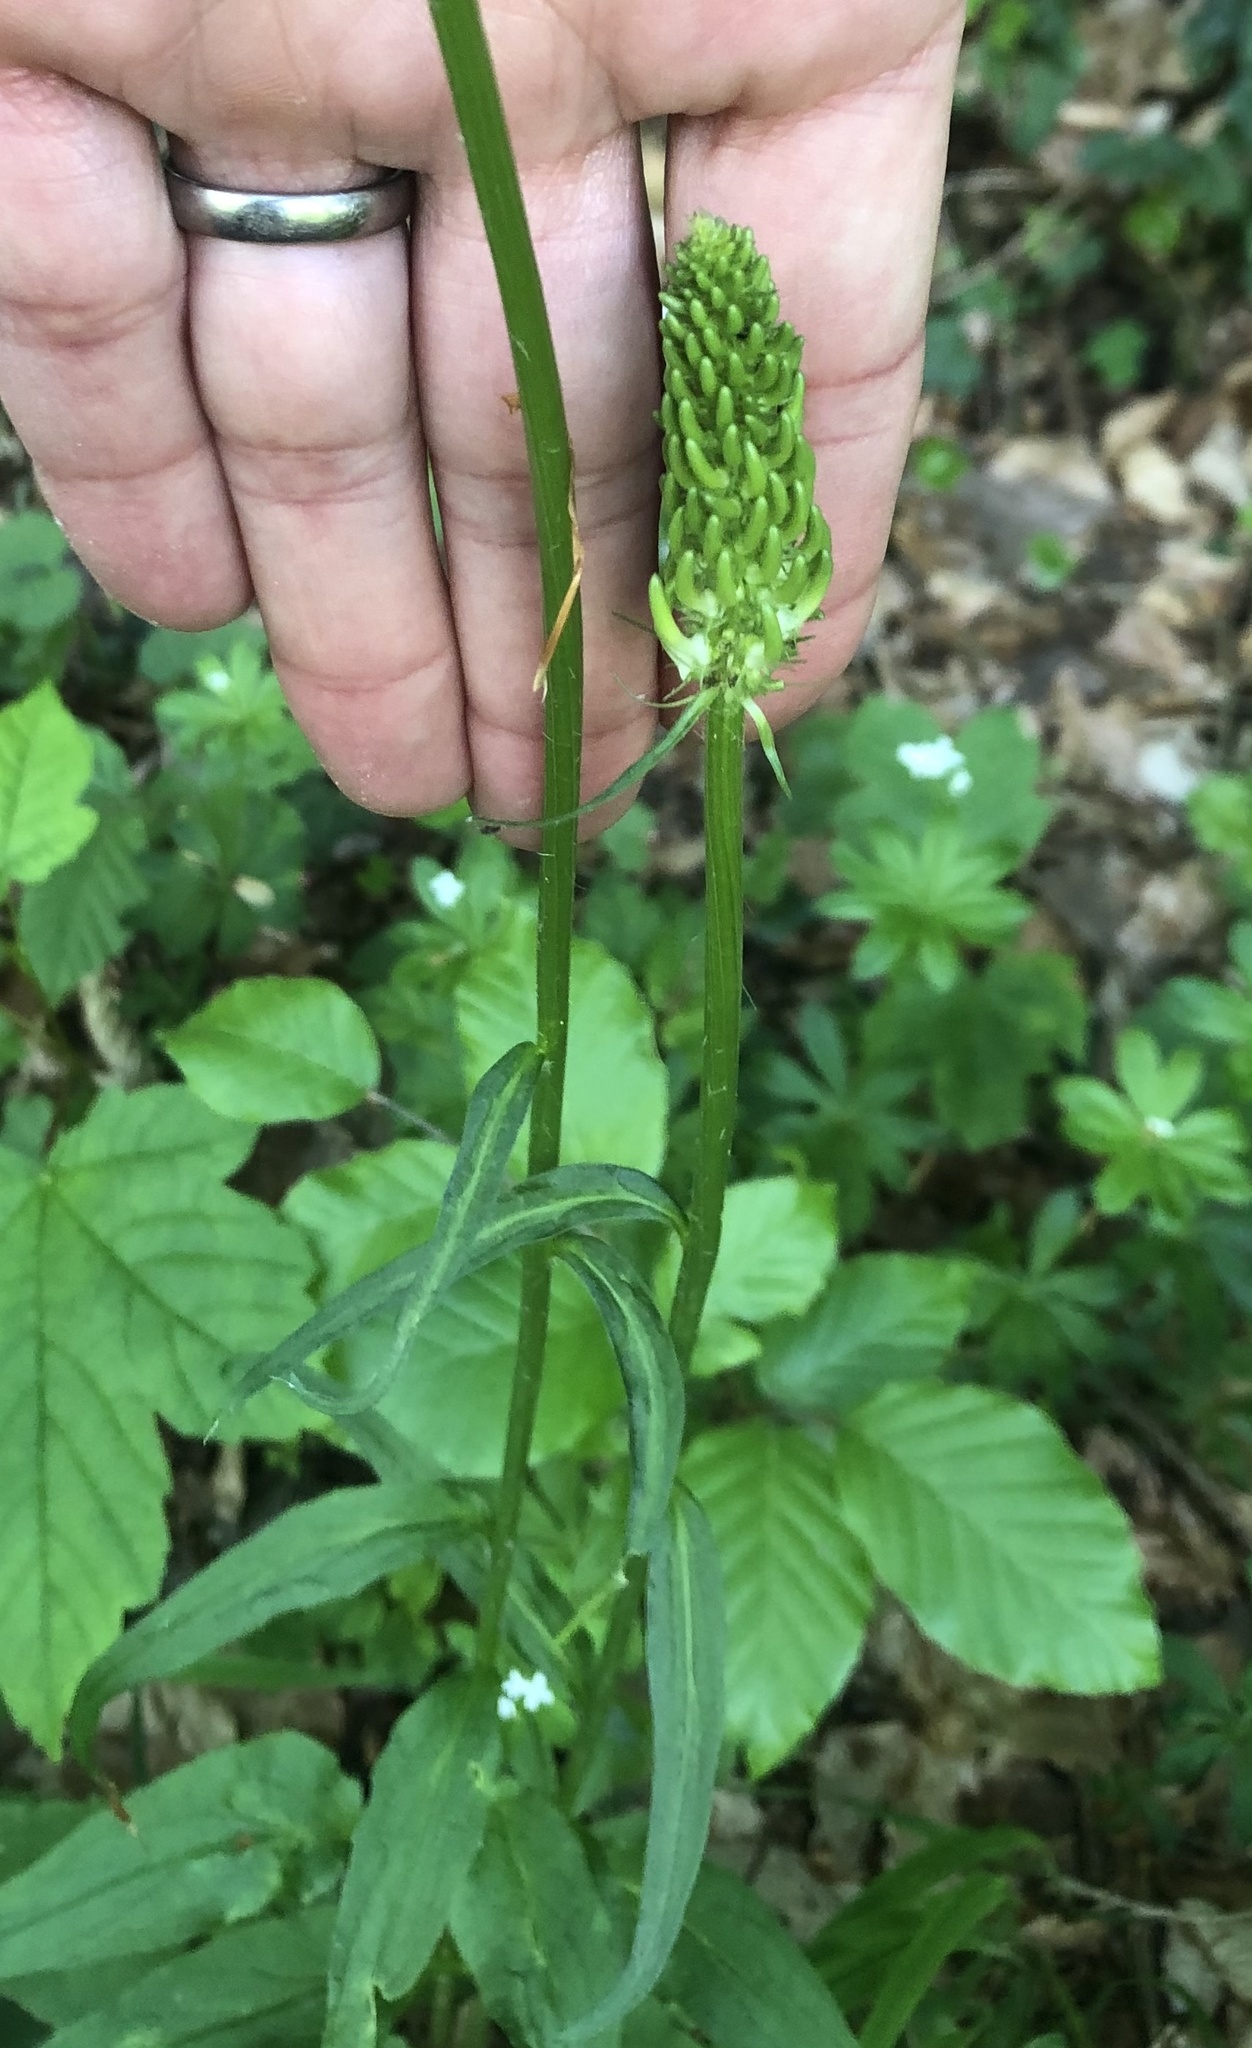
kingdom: Plantae
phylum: Tracheophyta
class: Magnoliopsida
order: Asterales
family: Campanulaceae
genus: Phyteuma
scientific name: Phyteuma spicatum
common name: Spiked rampion
